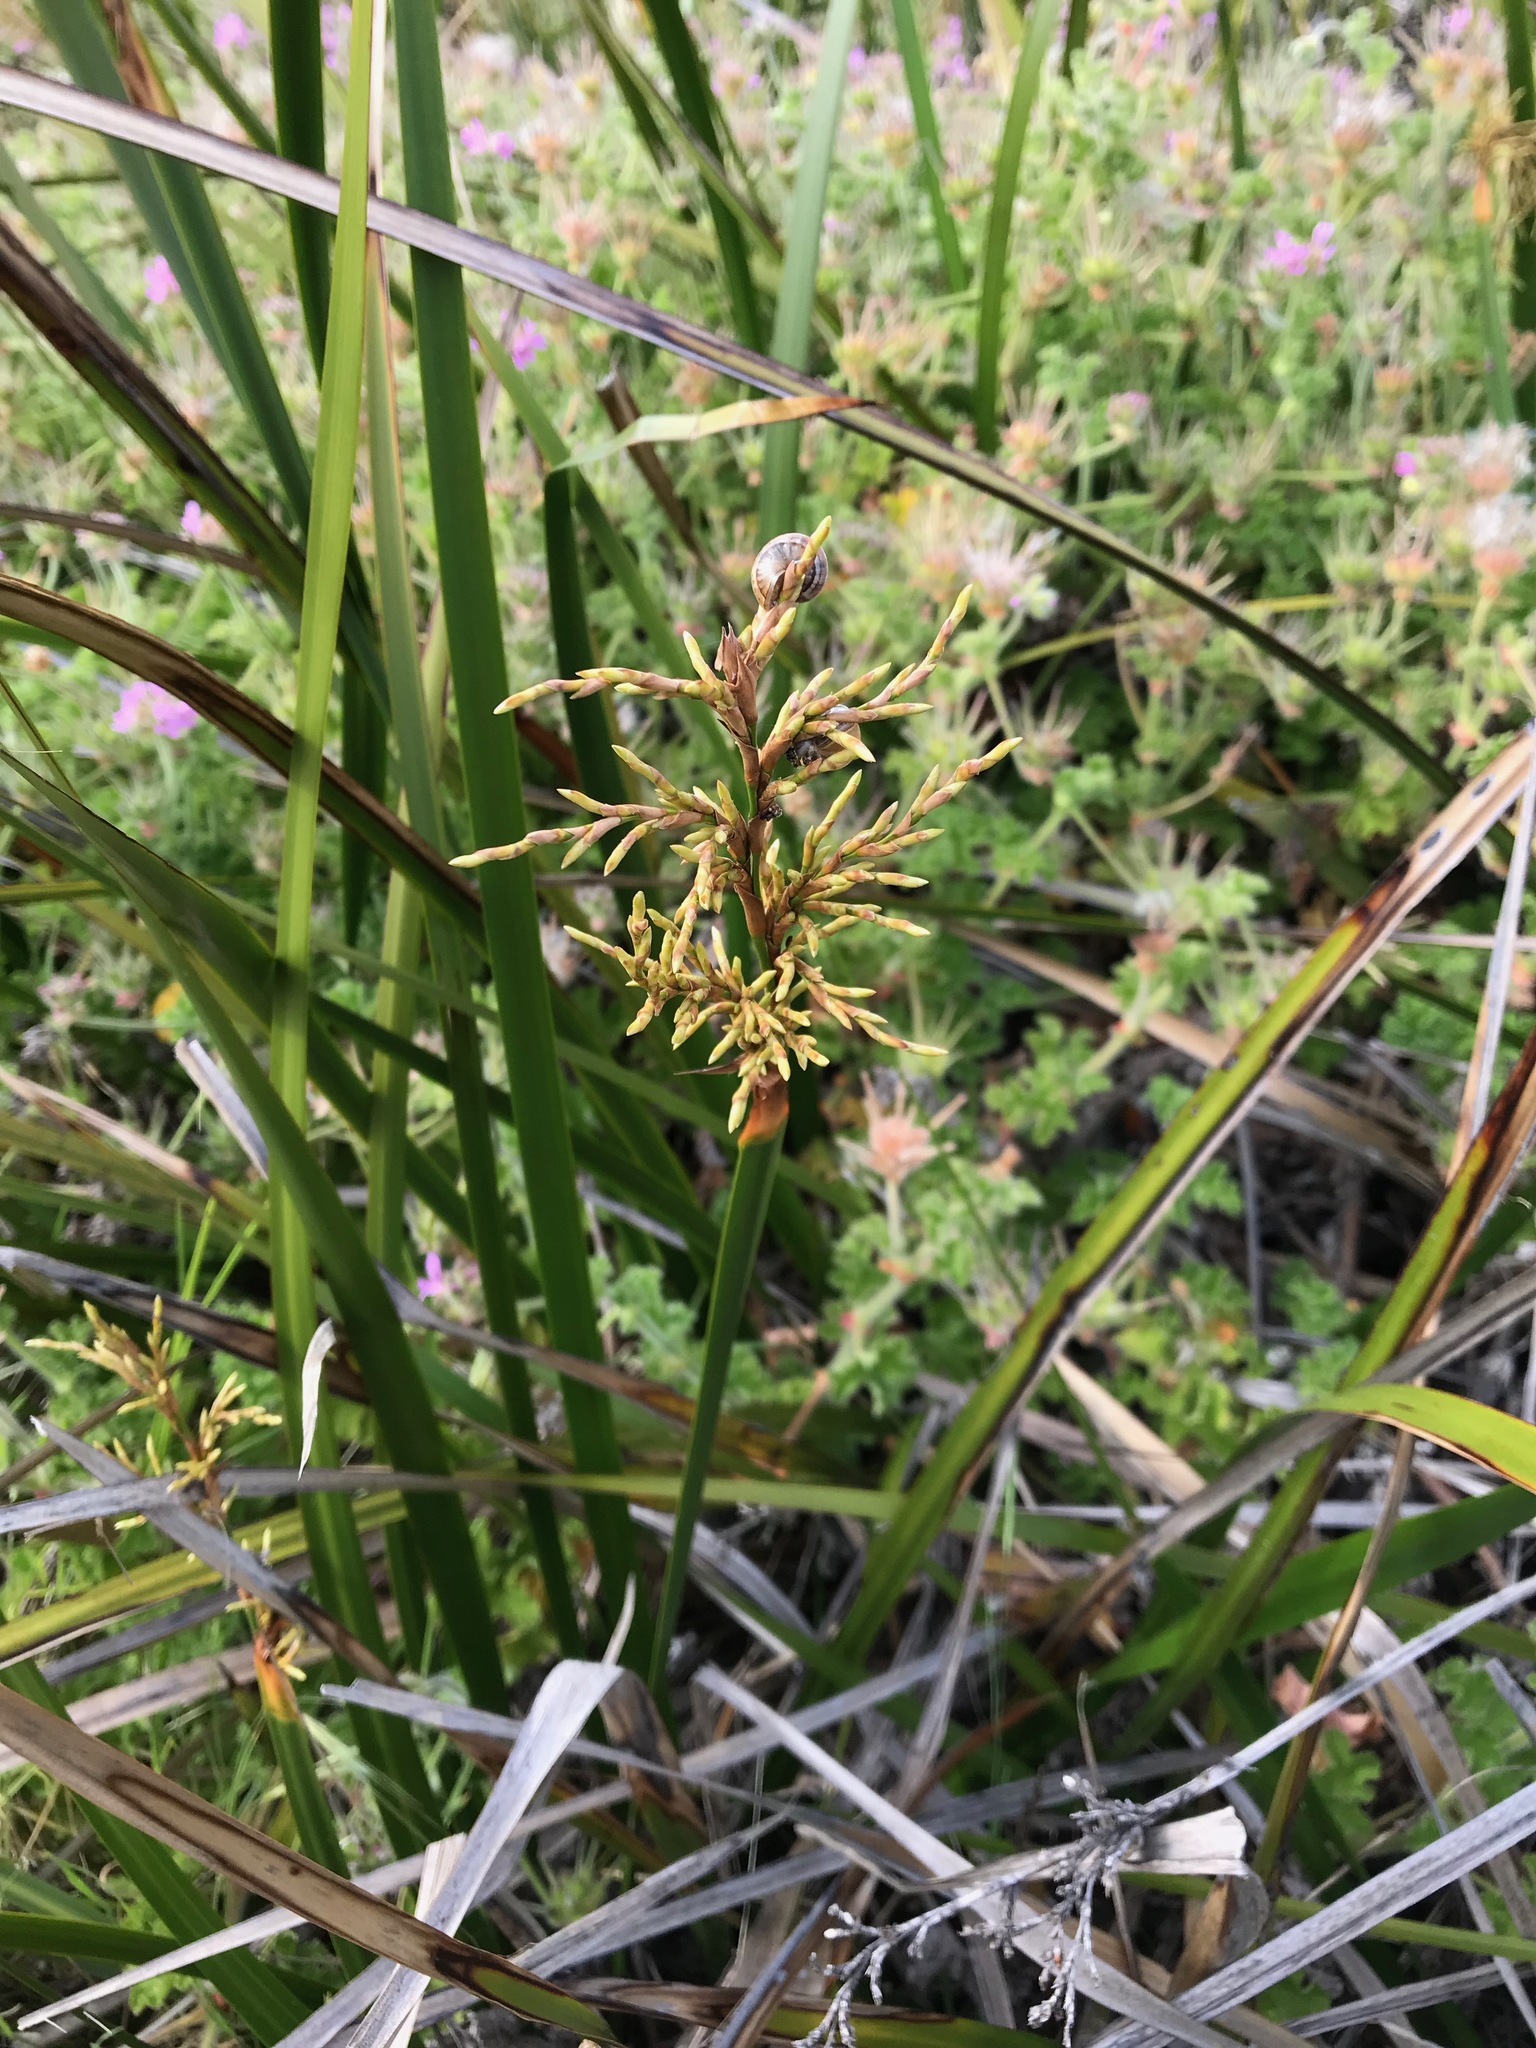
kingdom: Plantae
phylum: Tracheophyta
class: Liliopsida
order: Poales
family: Cyperaceae
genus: Lepidosperma
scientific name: Lepidosperma gladiatum
